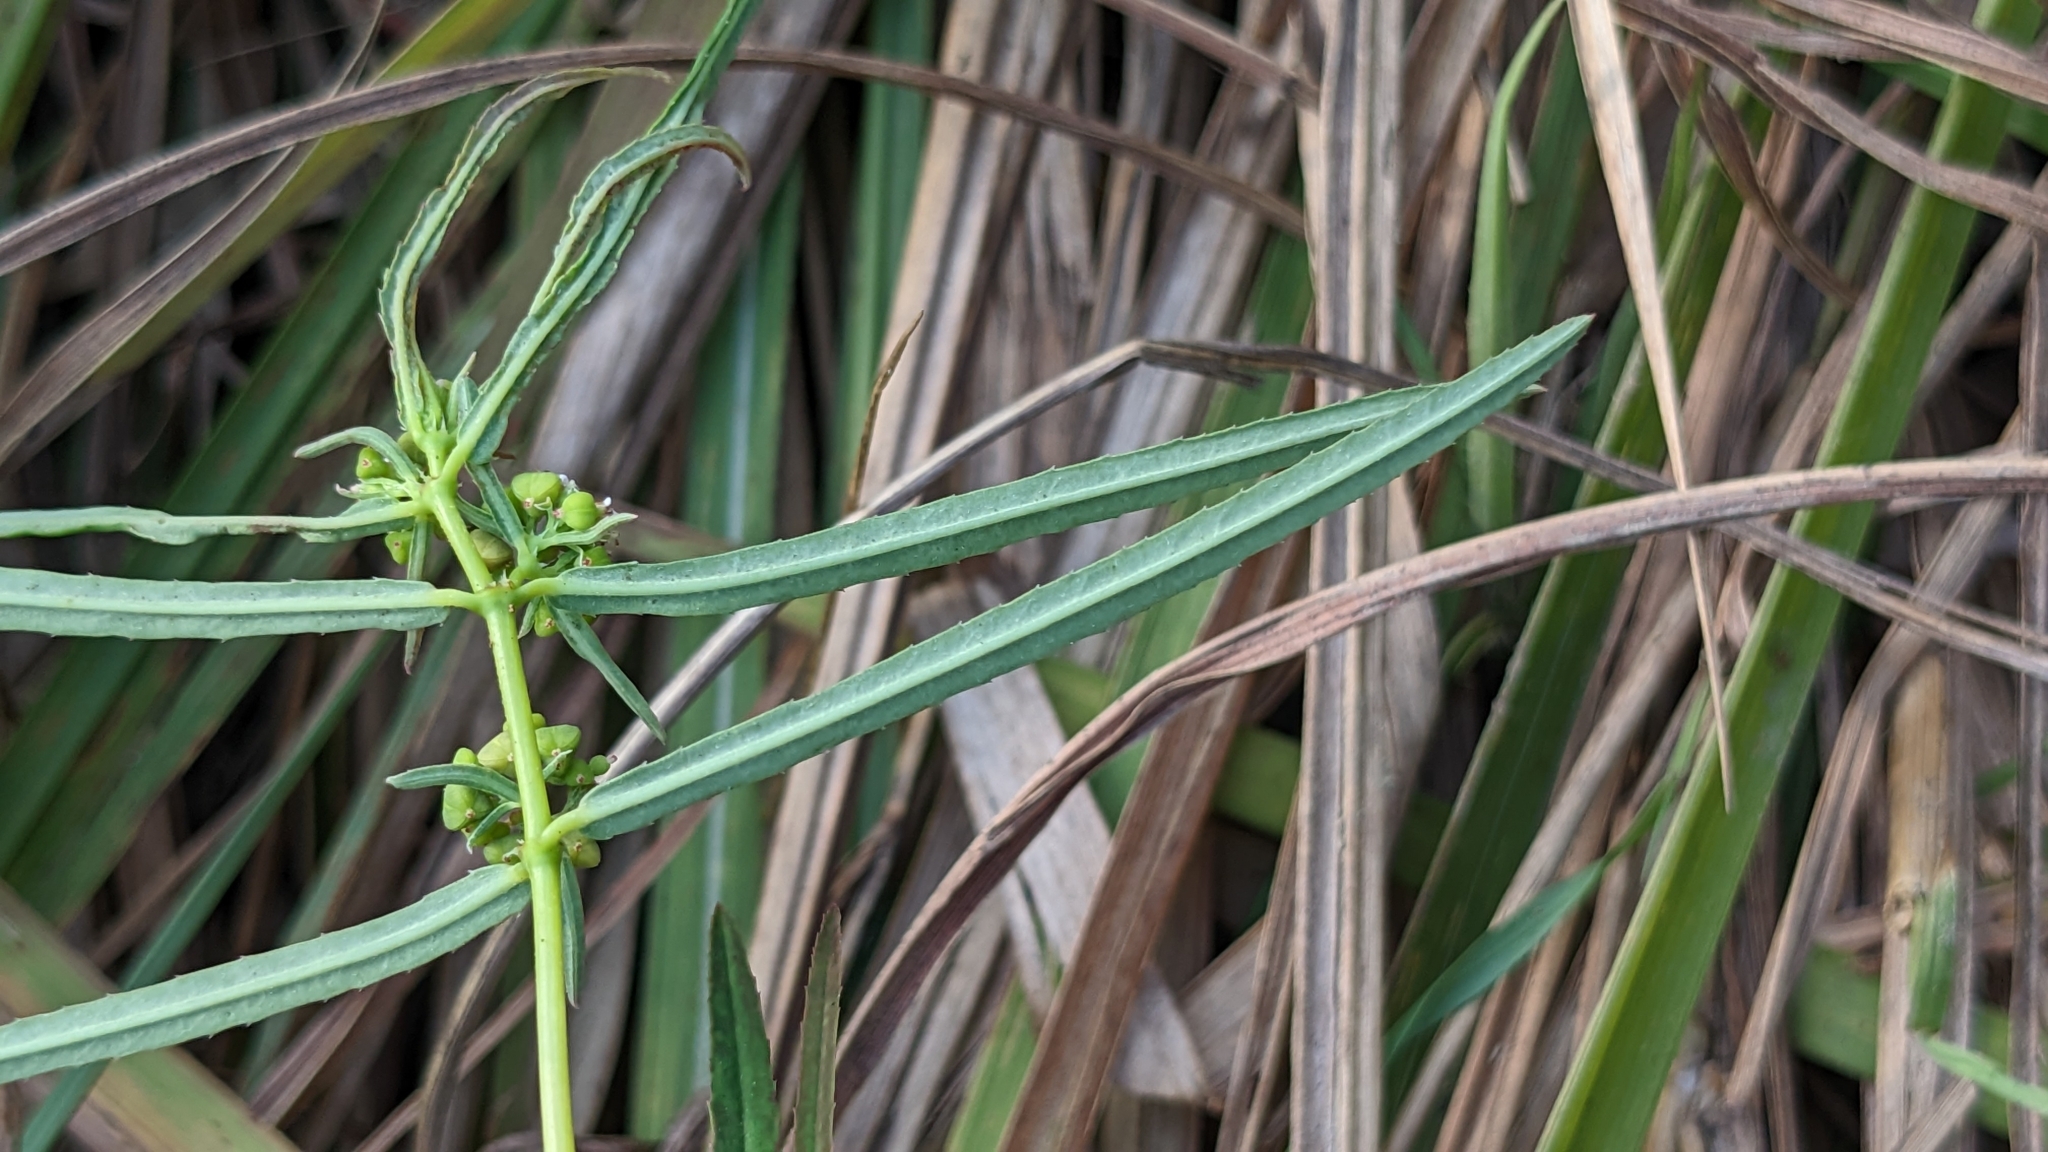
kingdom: Plantae
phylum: Tracheophyta
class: Magnoliopsida
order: Malpighiales
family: Euphorbiaceae
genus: Euphorbia
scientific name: Euphorbia bifida
